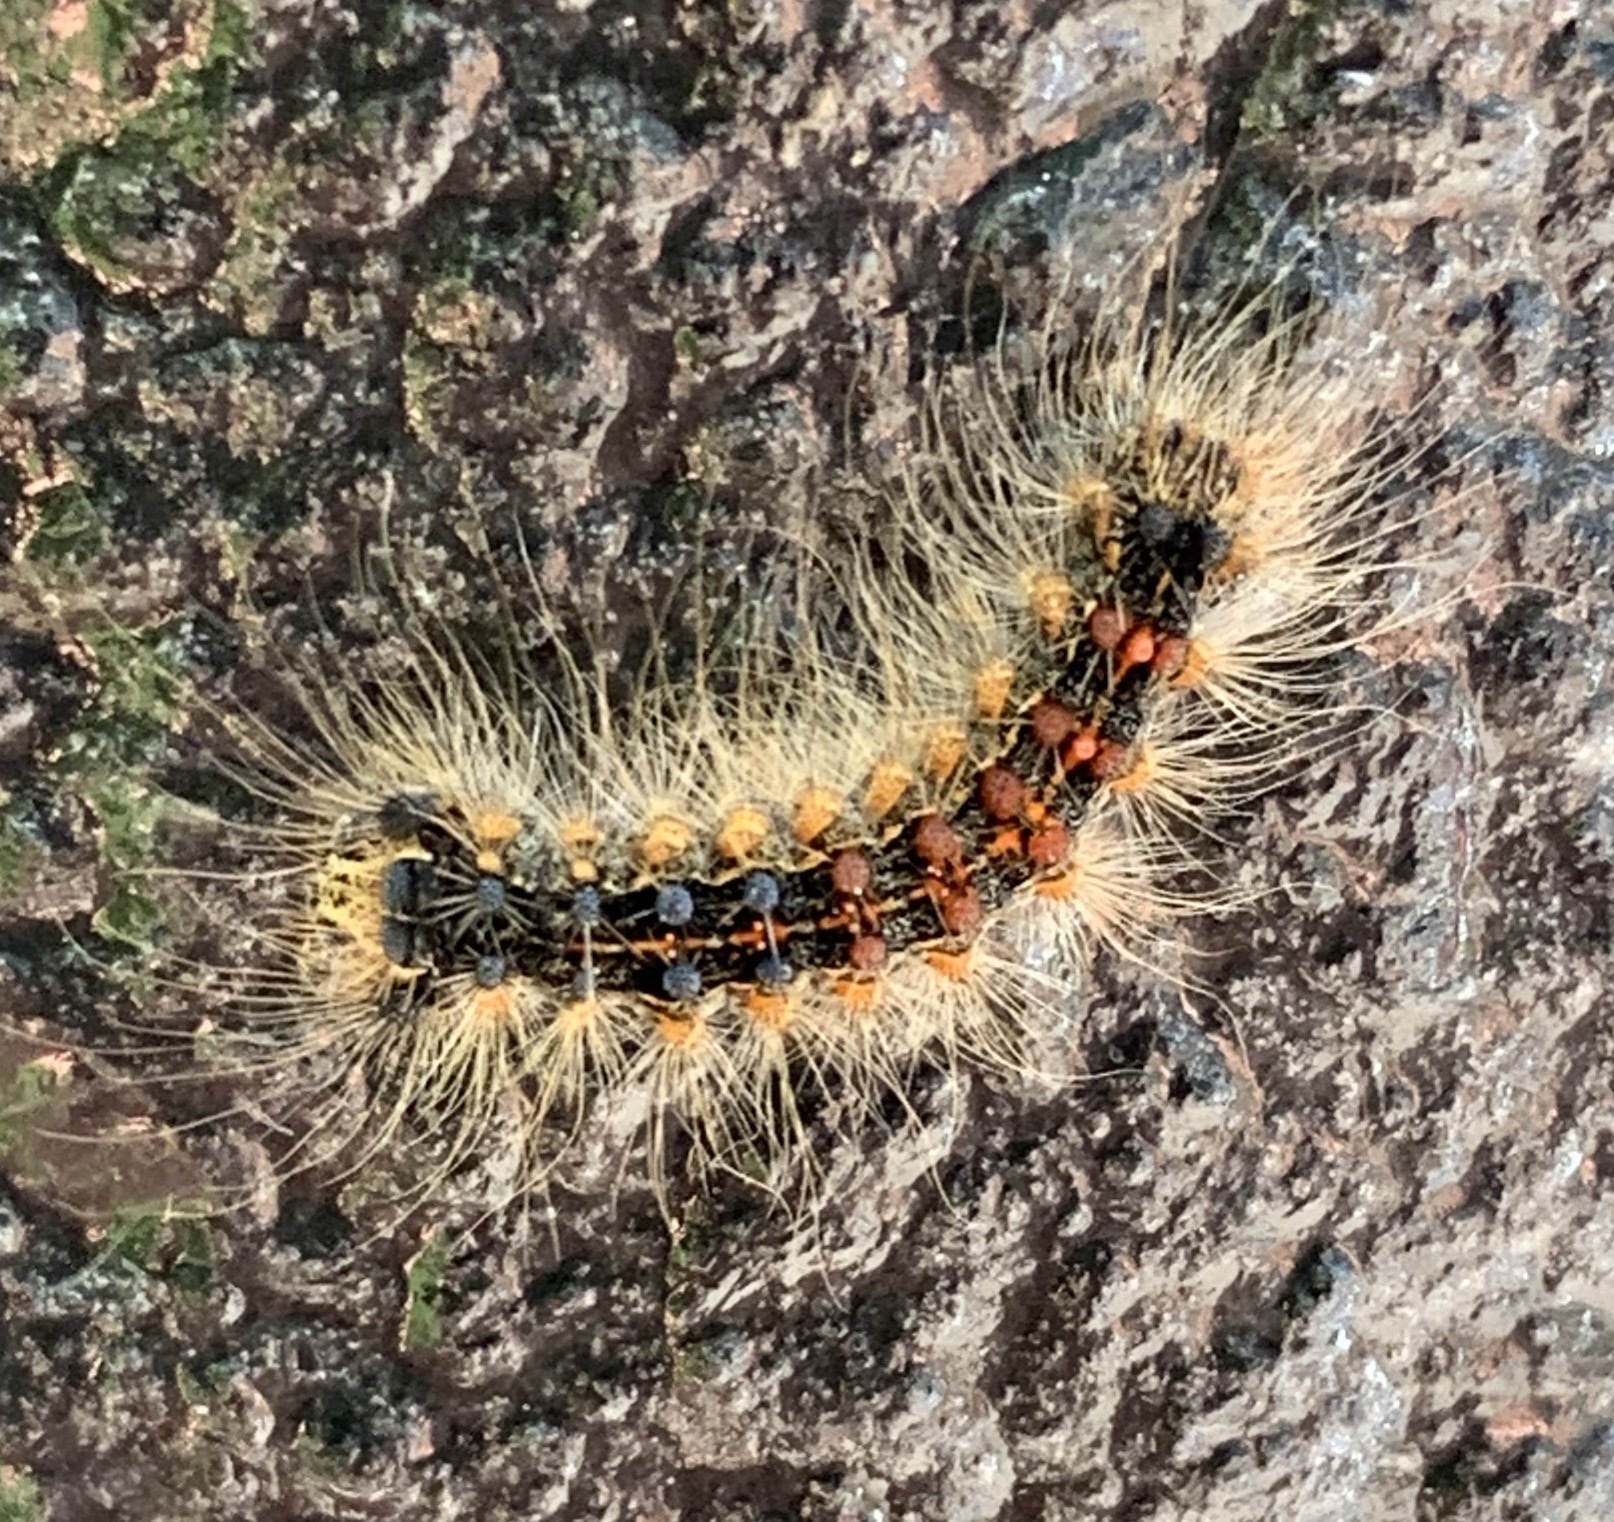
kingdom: Animalia
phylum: Arthropoda
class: Insecta
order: Lepidoptera
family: Erebidae
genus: Lymantria
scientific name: Lymantria dispar
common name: Gypsy moth
